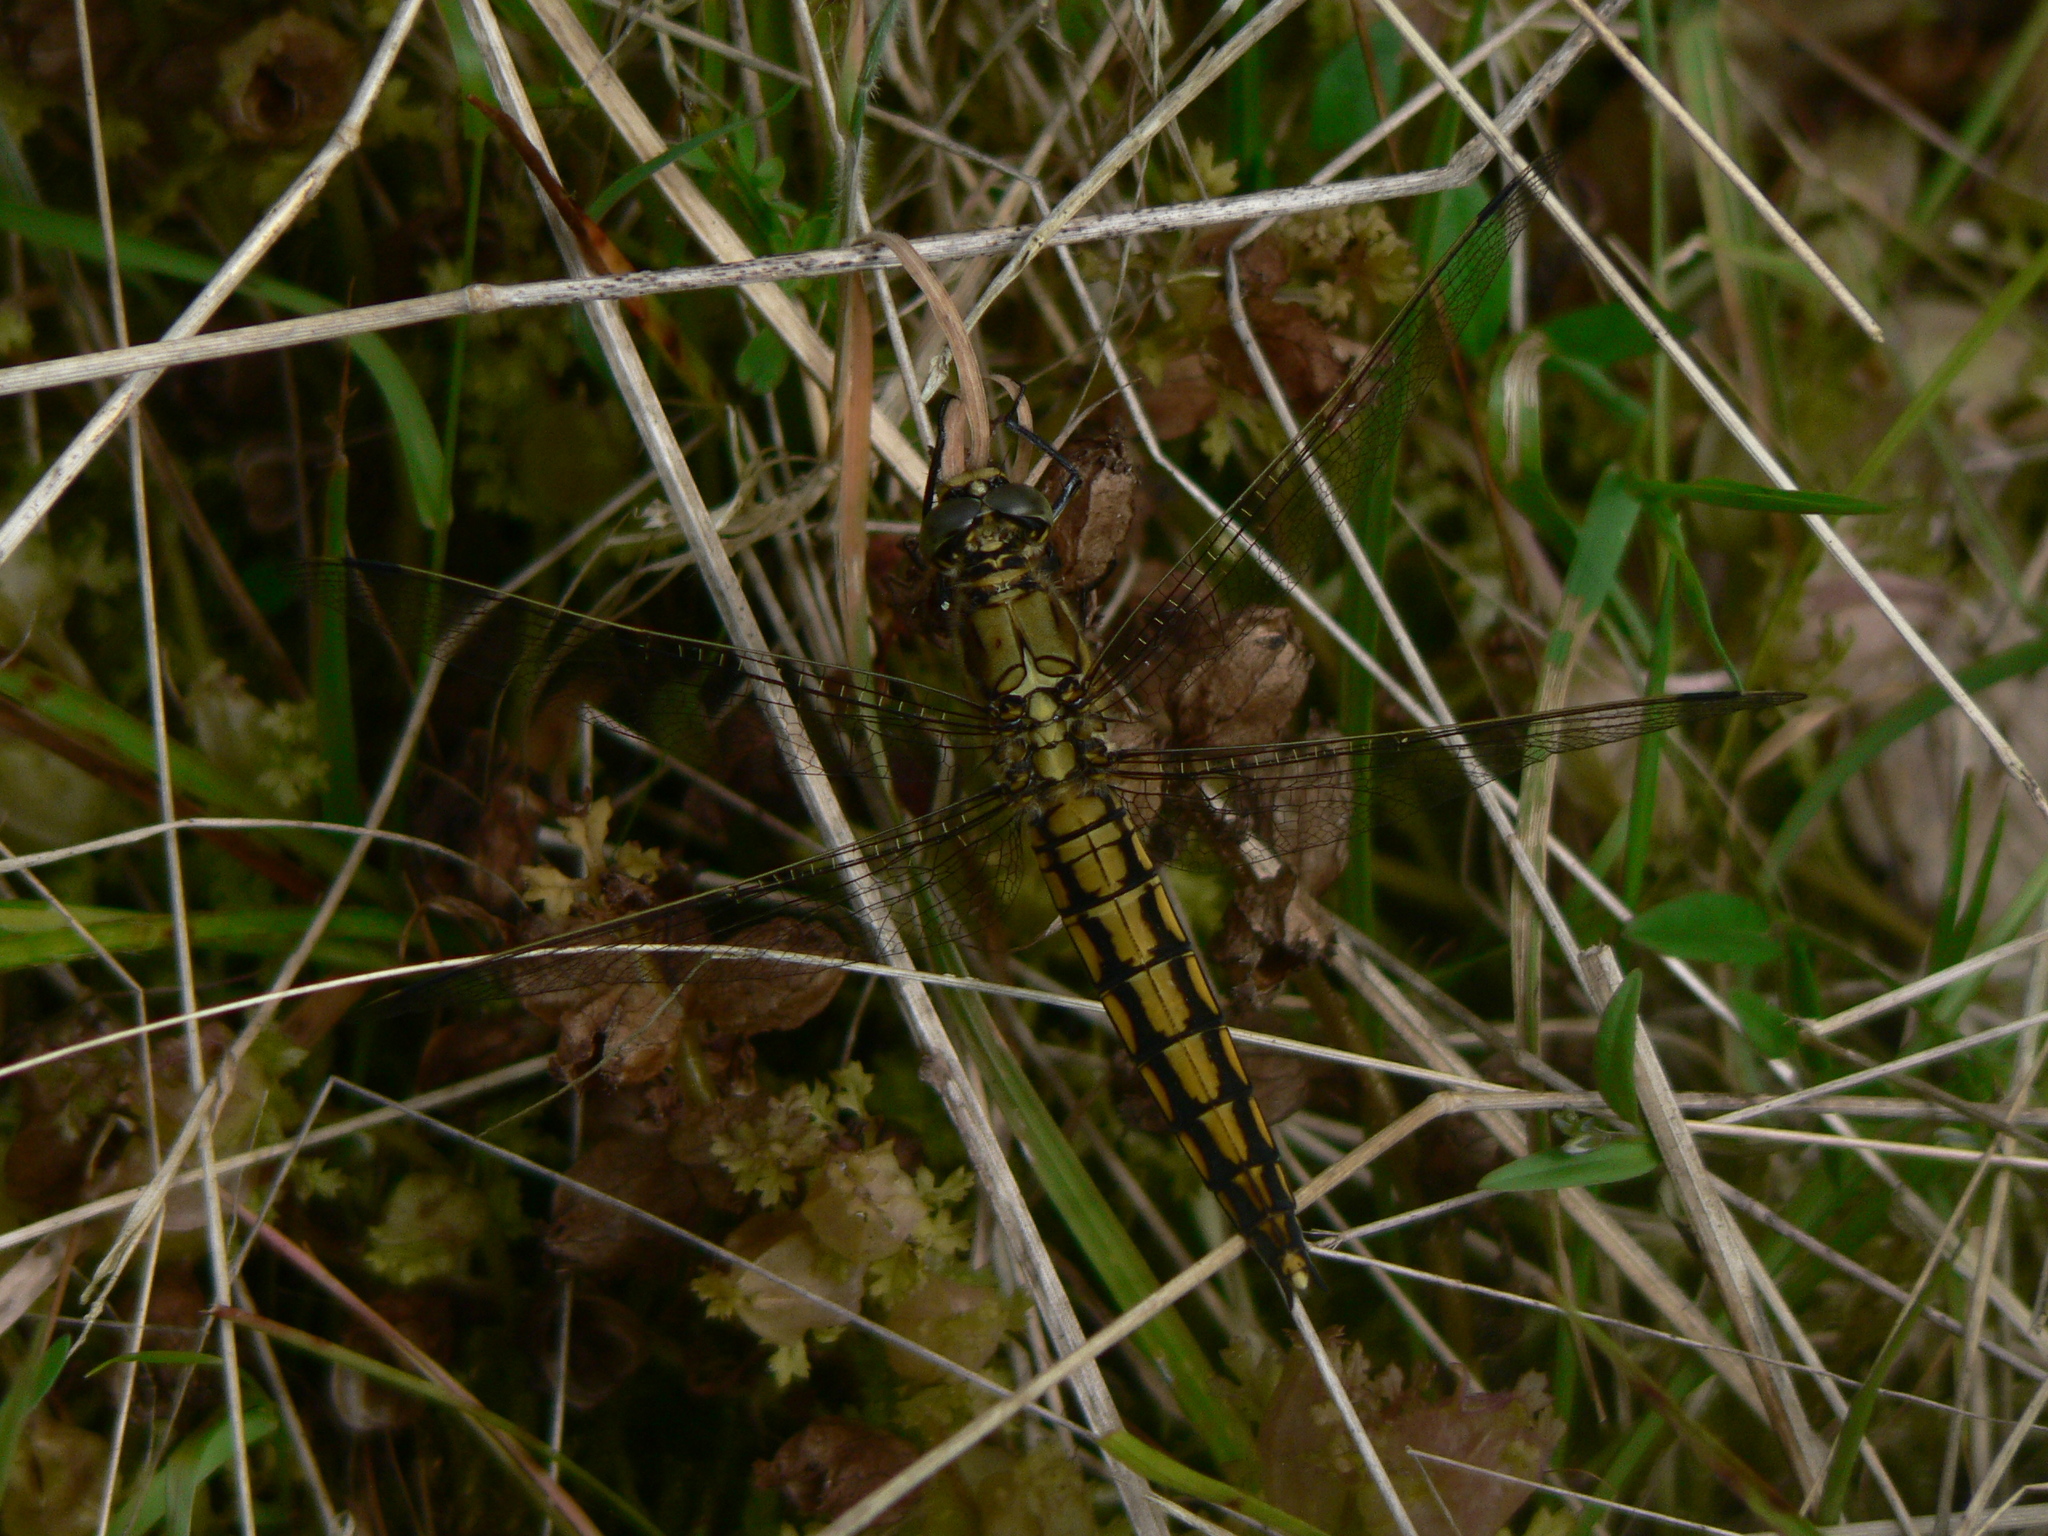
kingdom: Animalia
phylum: Arthropoda
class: Insecta
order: Odonata
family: Libellulidae
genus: Orthetrum
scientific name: Orthetrum cancellatum
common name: Black-tailed skimmer
